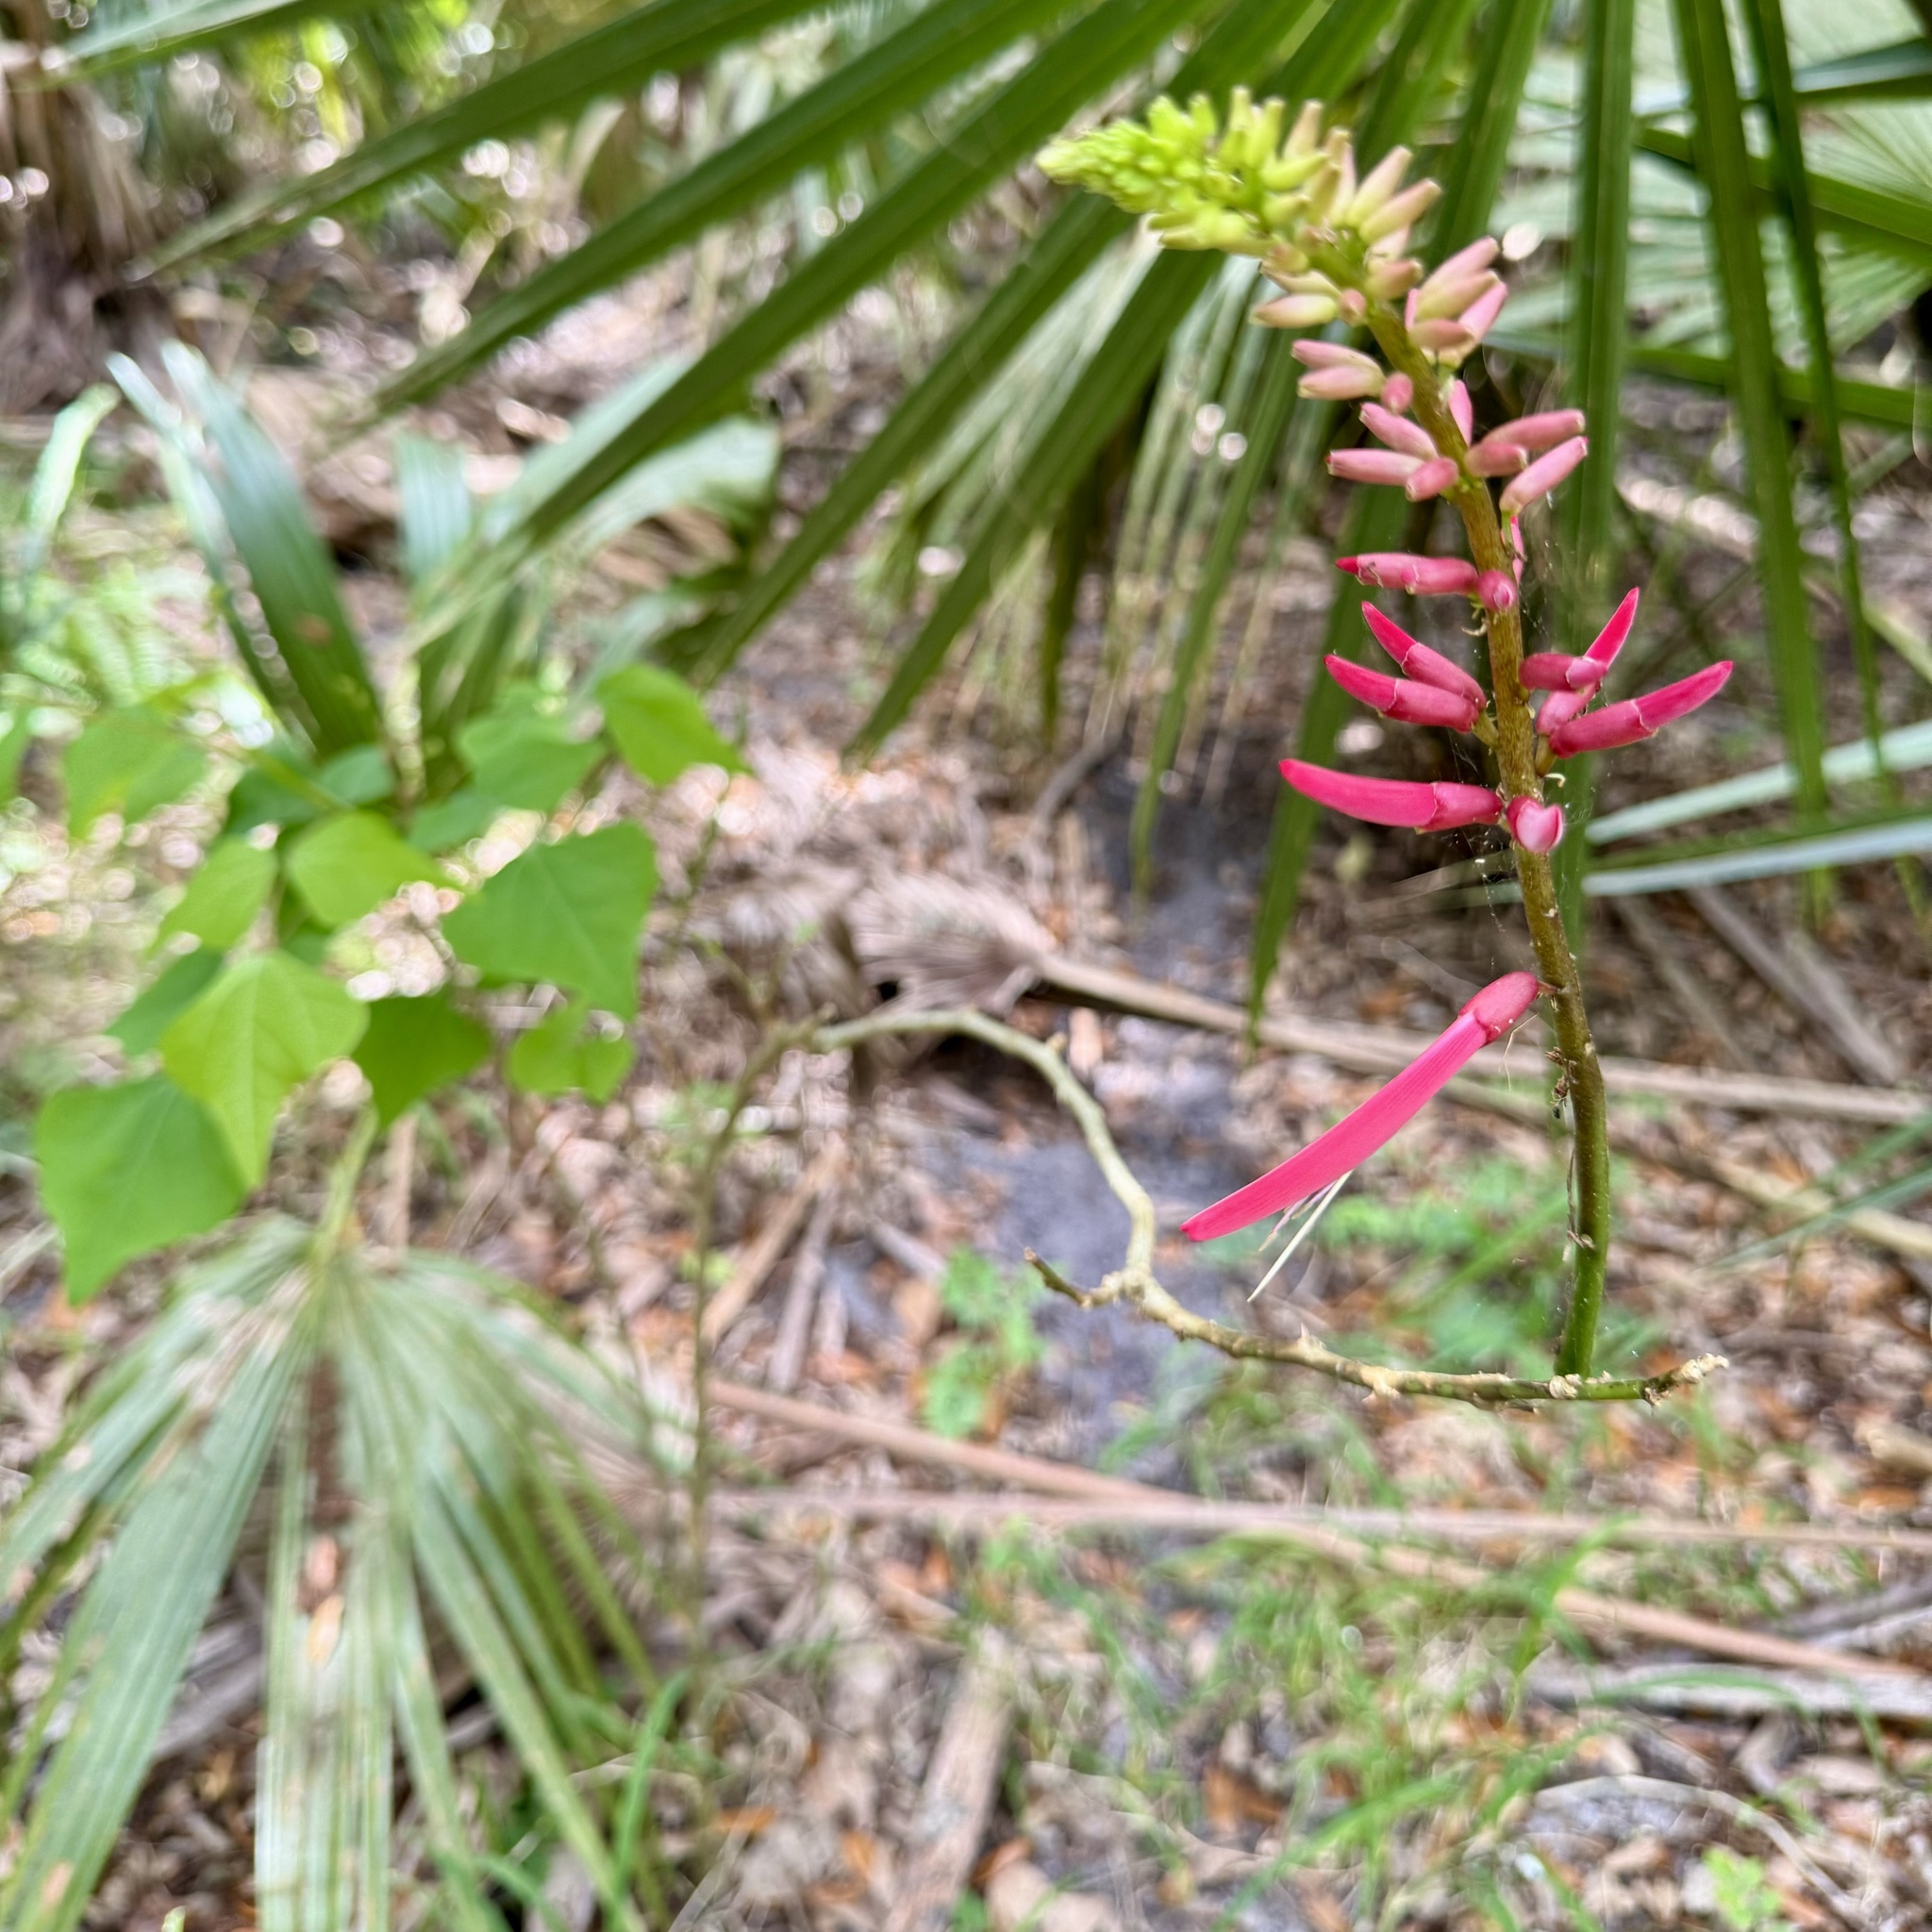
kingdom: Plantae
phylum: Tracheophyta
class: Magnoliopsida
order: Fabales
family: Fabaceae
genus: Erythrina
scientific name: Erythrina herbacea
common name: Coral-bean
